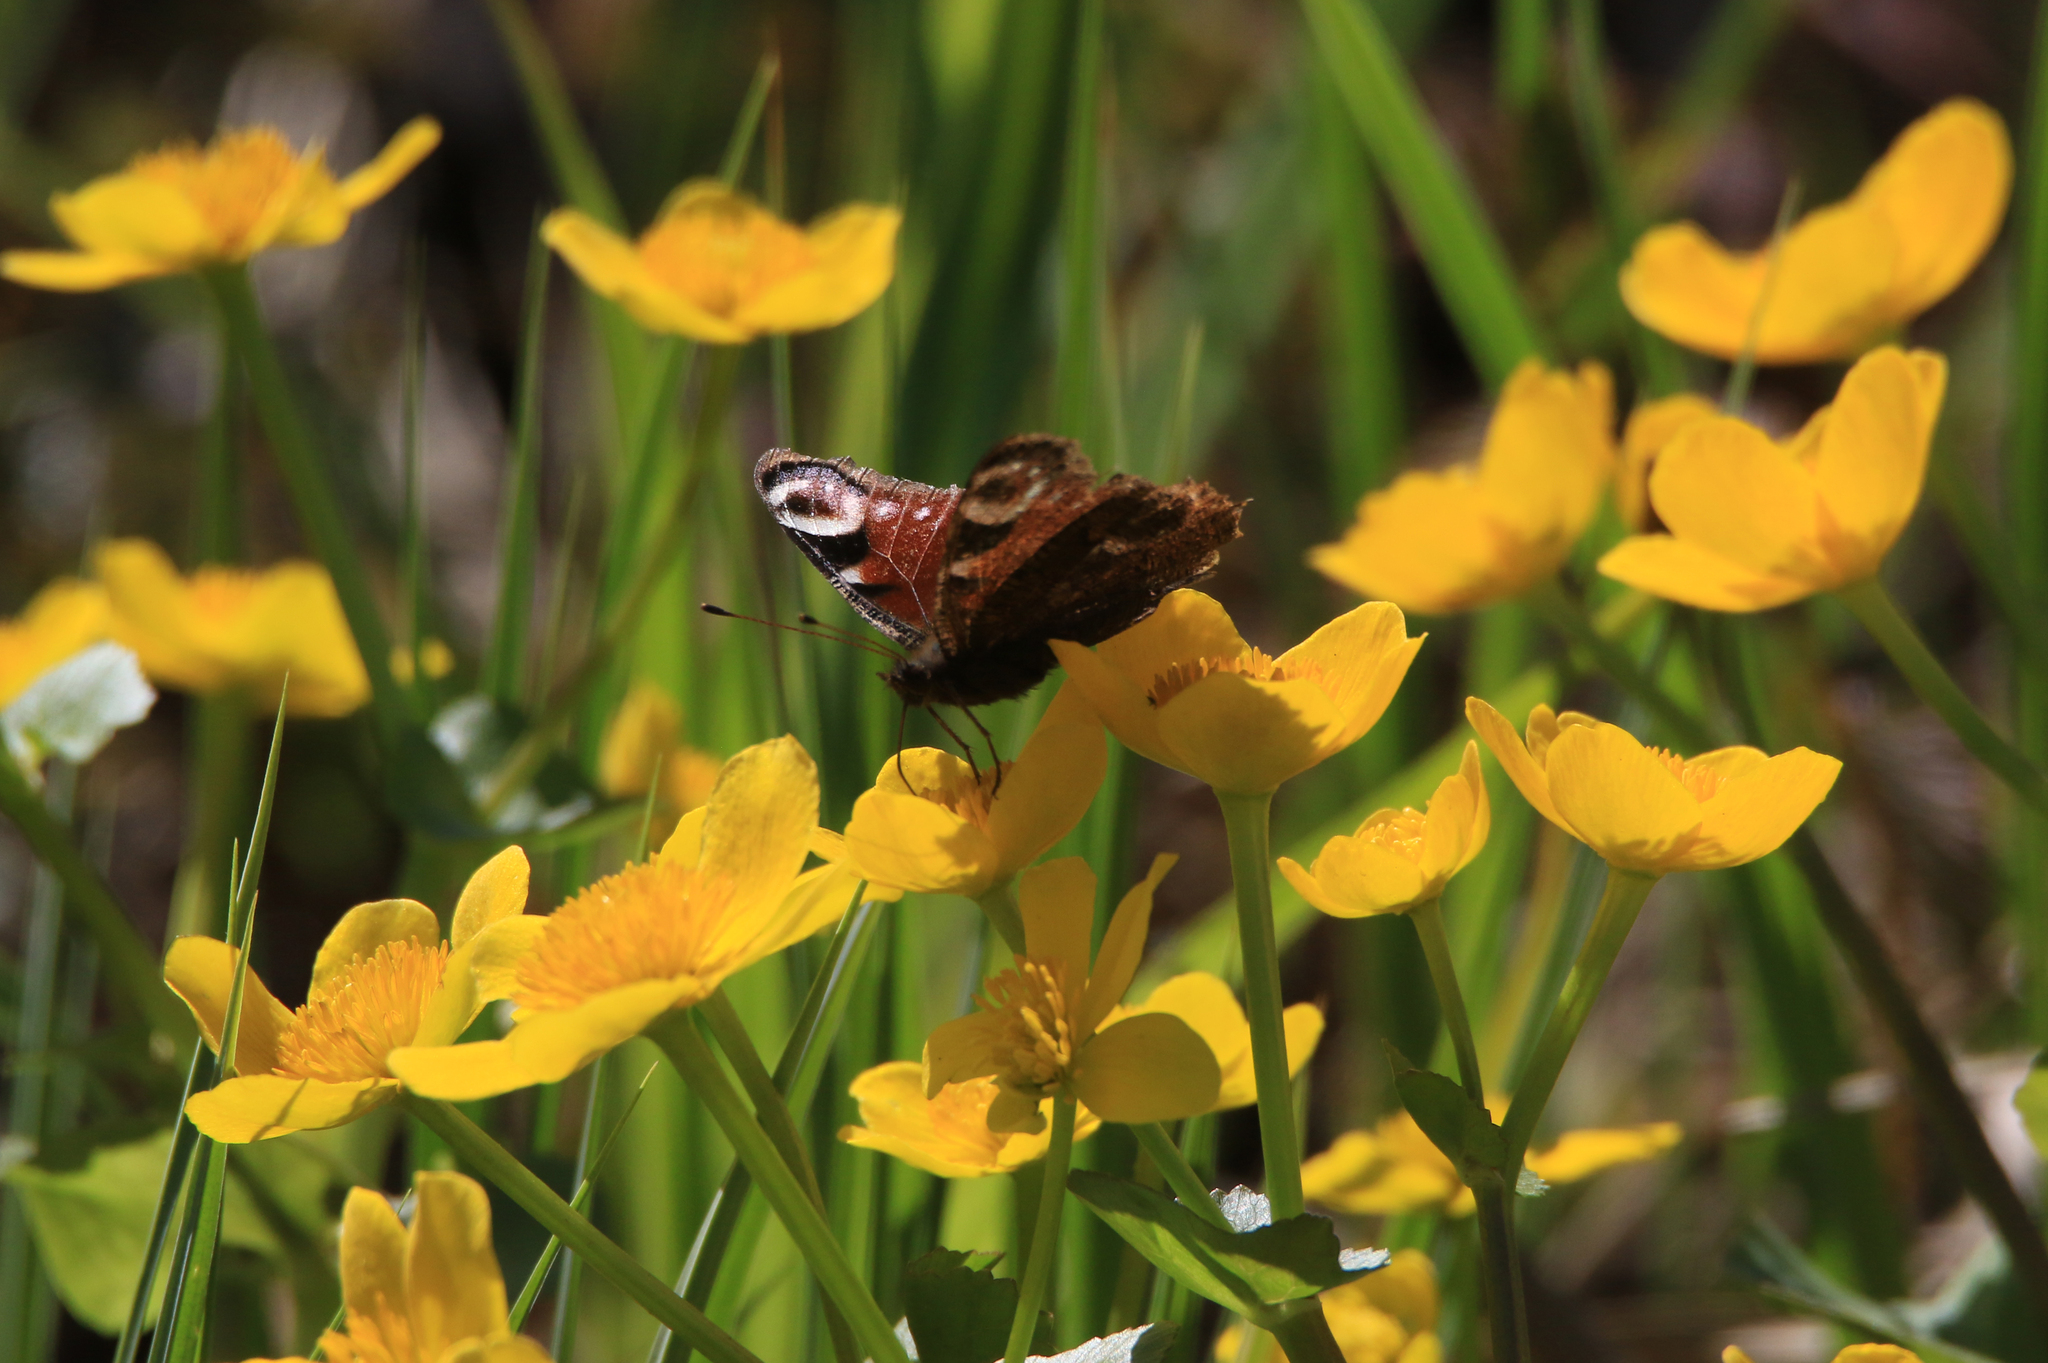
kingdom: Animalia
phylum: Arthropoda
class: Insecta
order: Lepidoptera
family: Nymphalidae
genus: Aglais
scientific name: Aglais io
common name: Peacock
